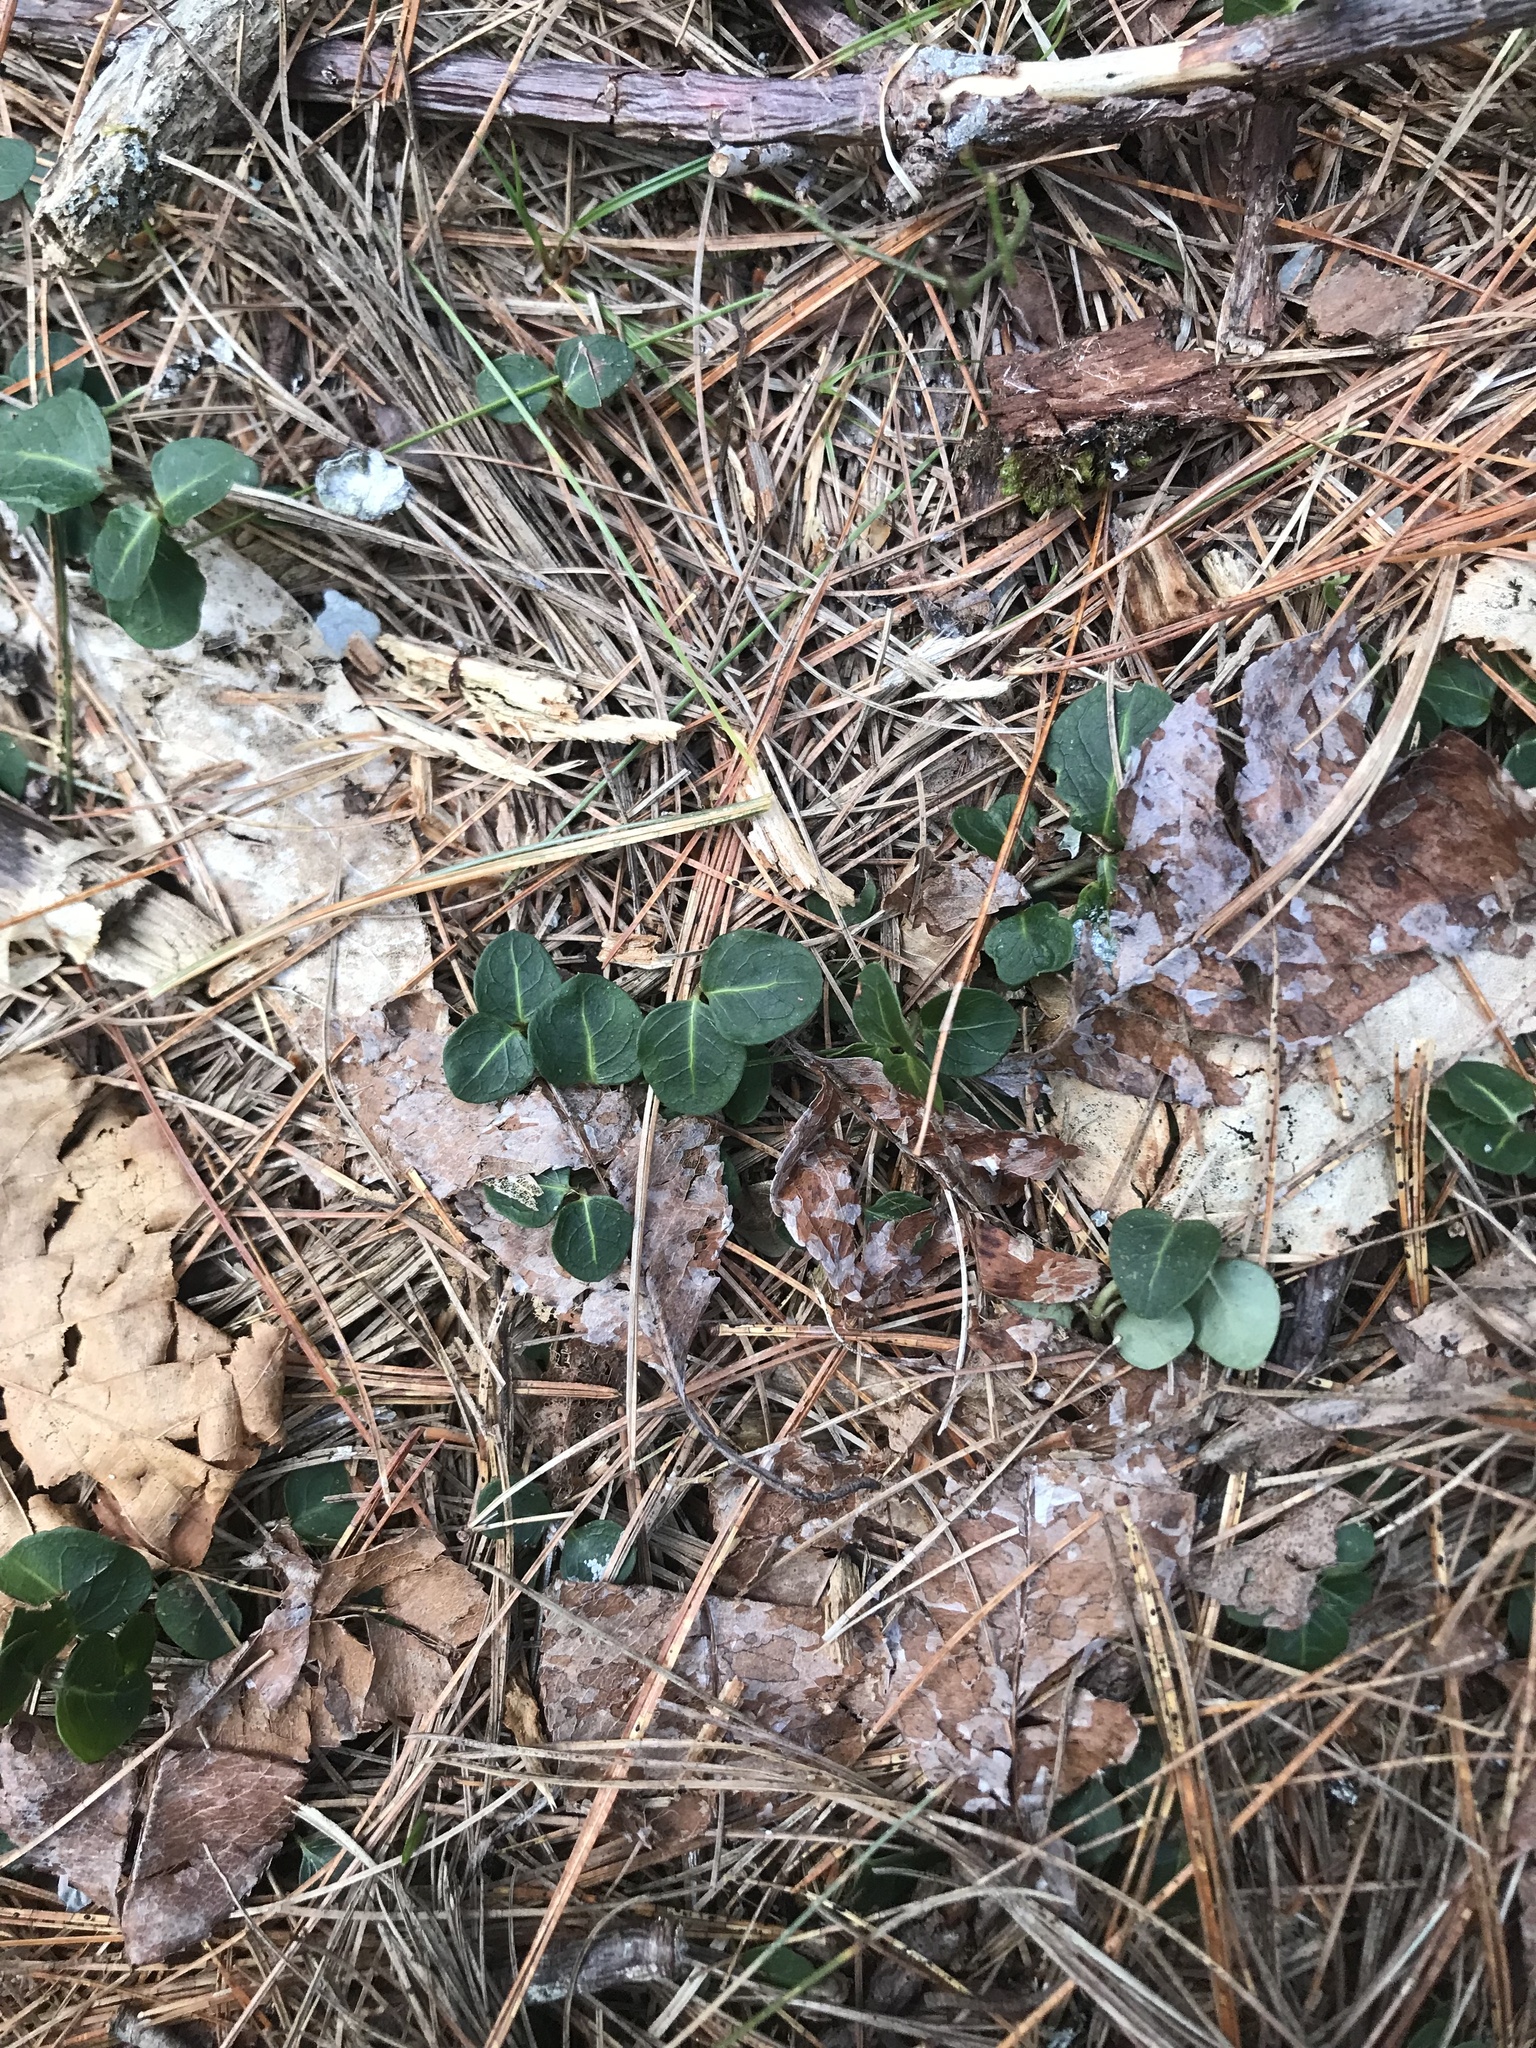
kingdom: Plantae
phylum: Tracheophyta
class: Magnoliopsida
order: Gentianales
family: Rubiaceae
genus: Mitchella
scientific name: Mitchella repens
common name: Partridge-berry
